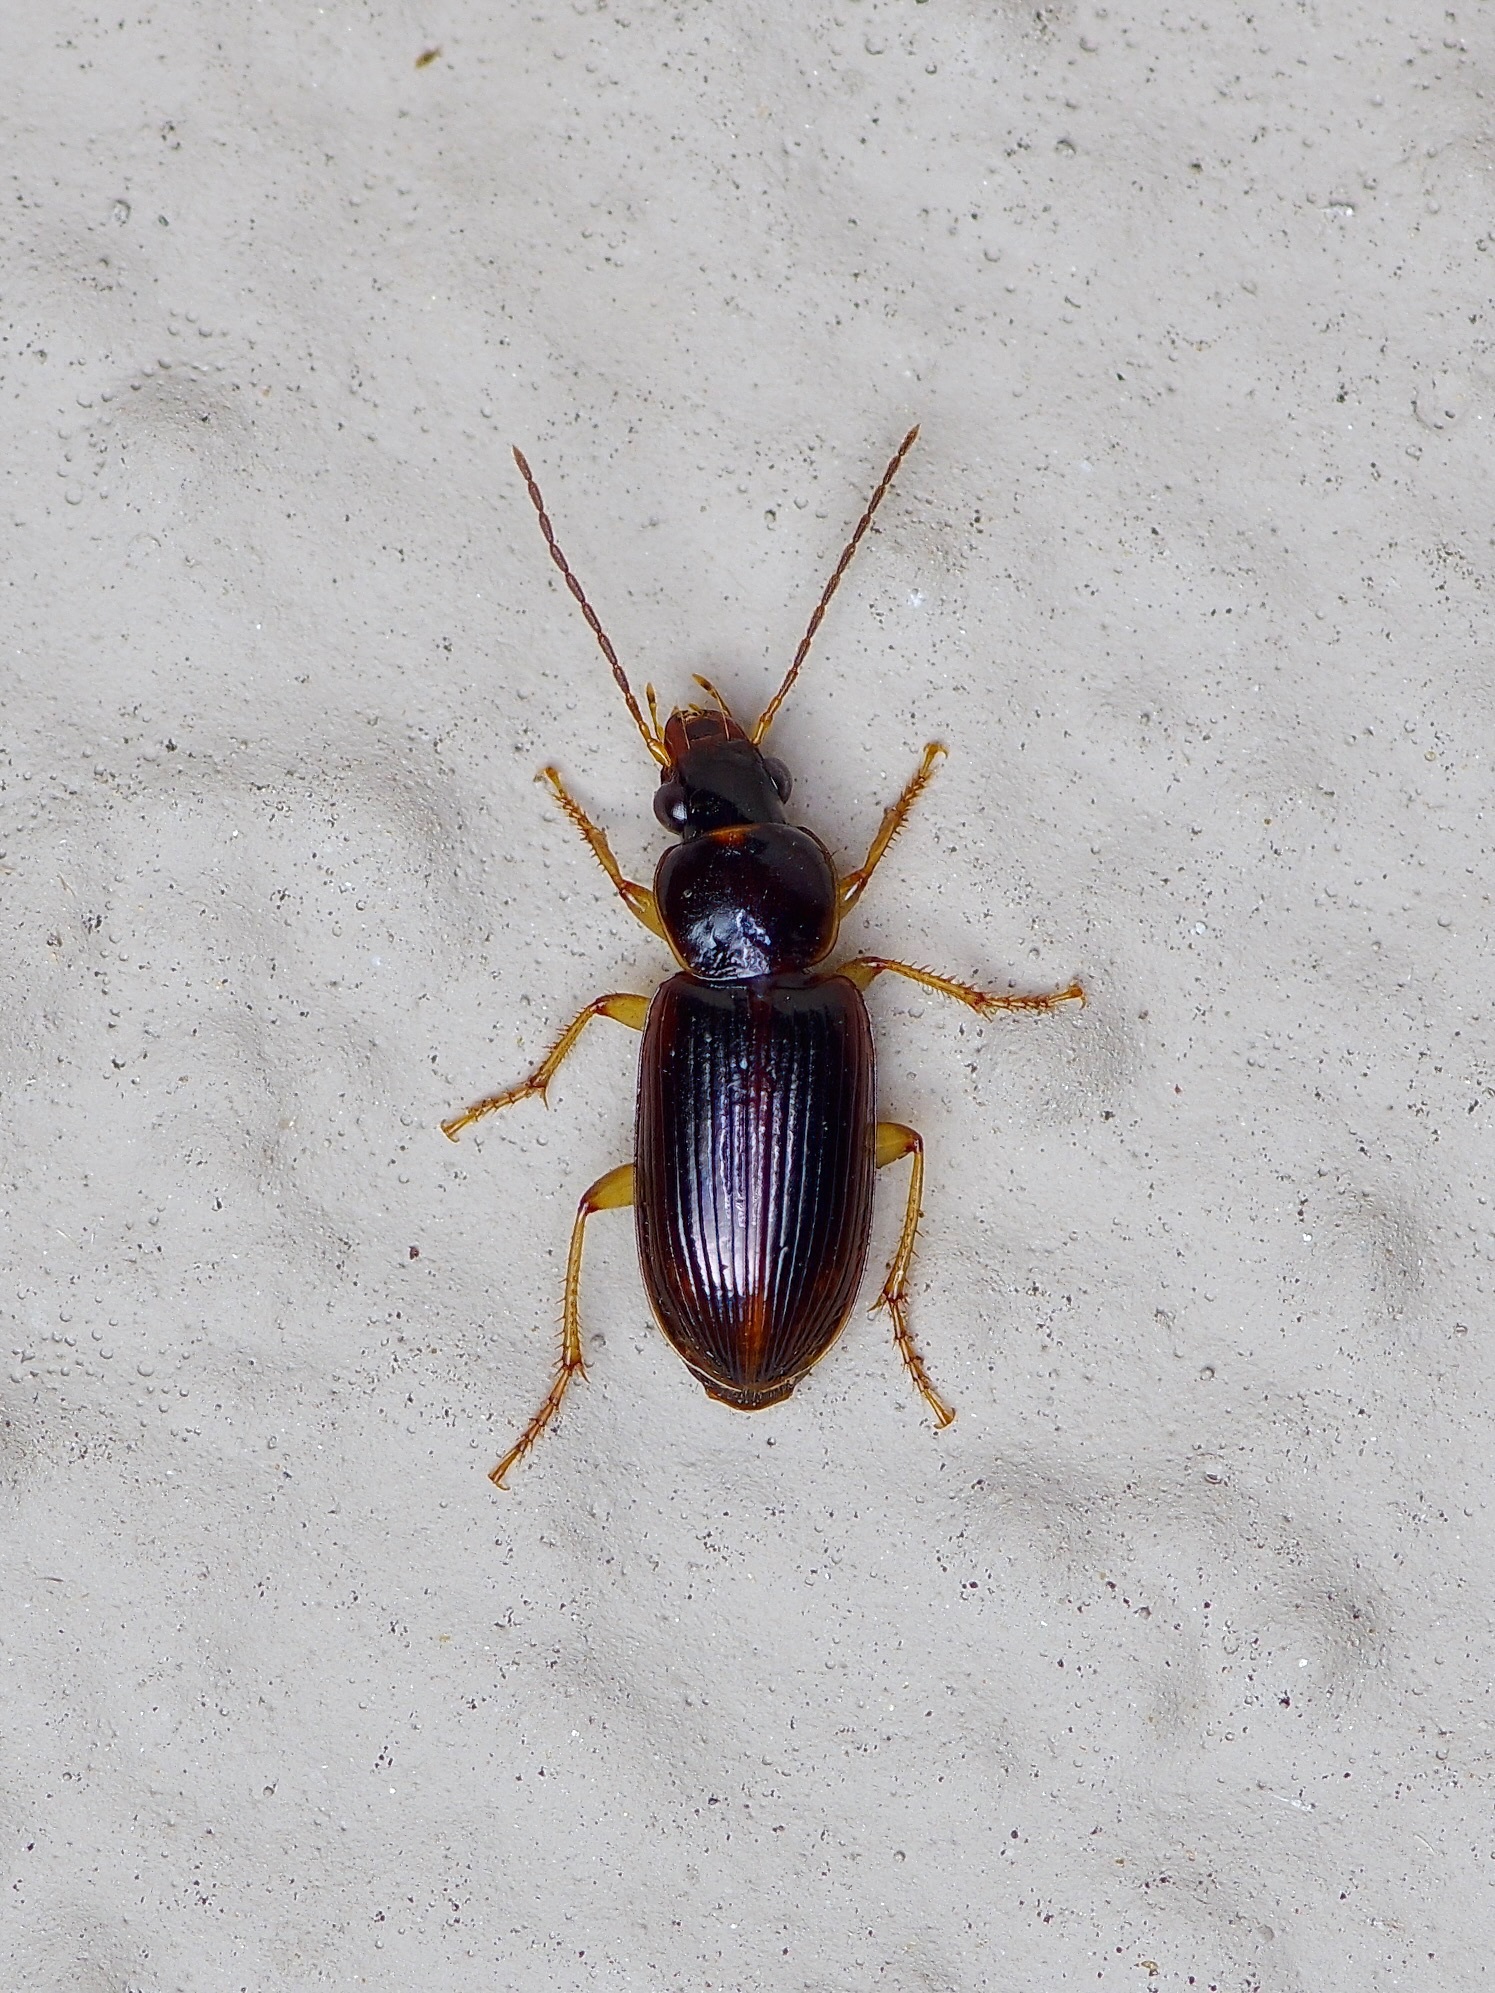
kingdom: Animalia
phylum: Arthropoda
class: Insecta
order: Coleoptera
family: Carabidae
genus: Stenolophus
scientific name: Stenolophus ochropezus
